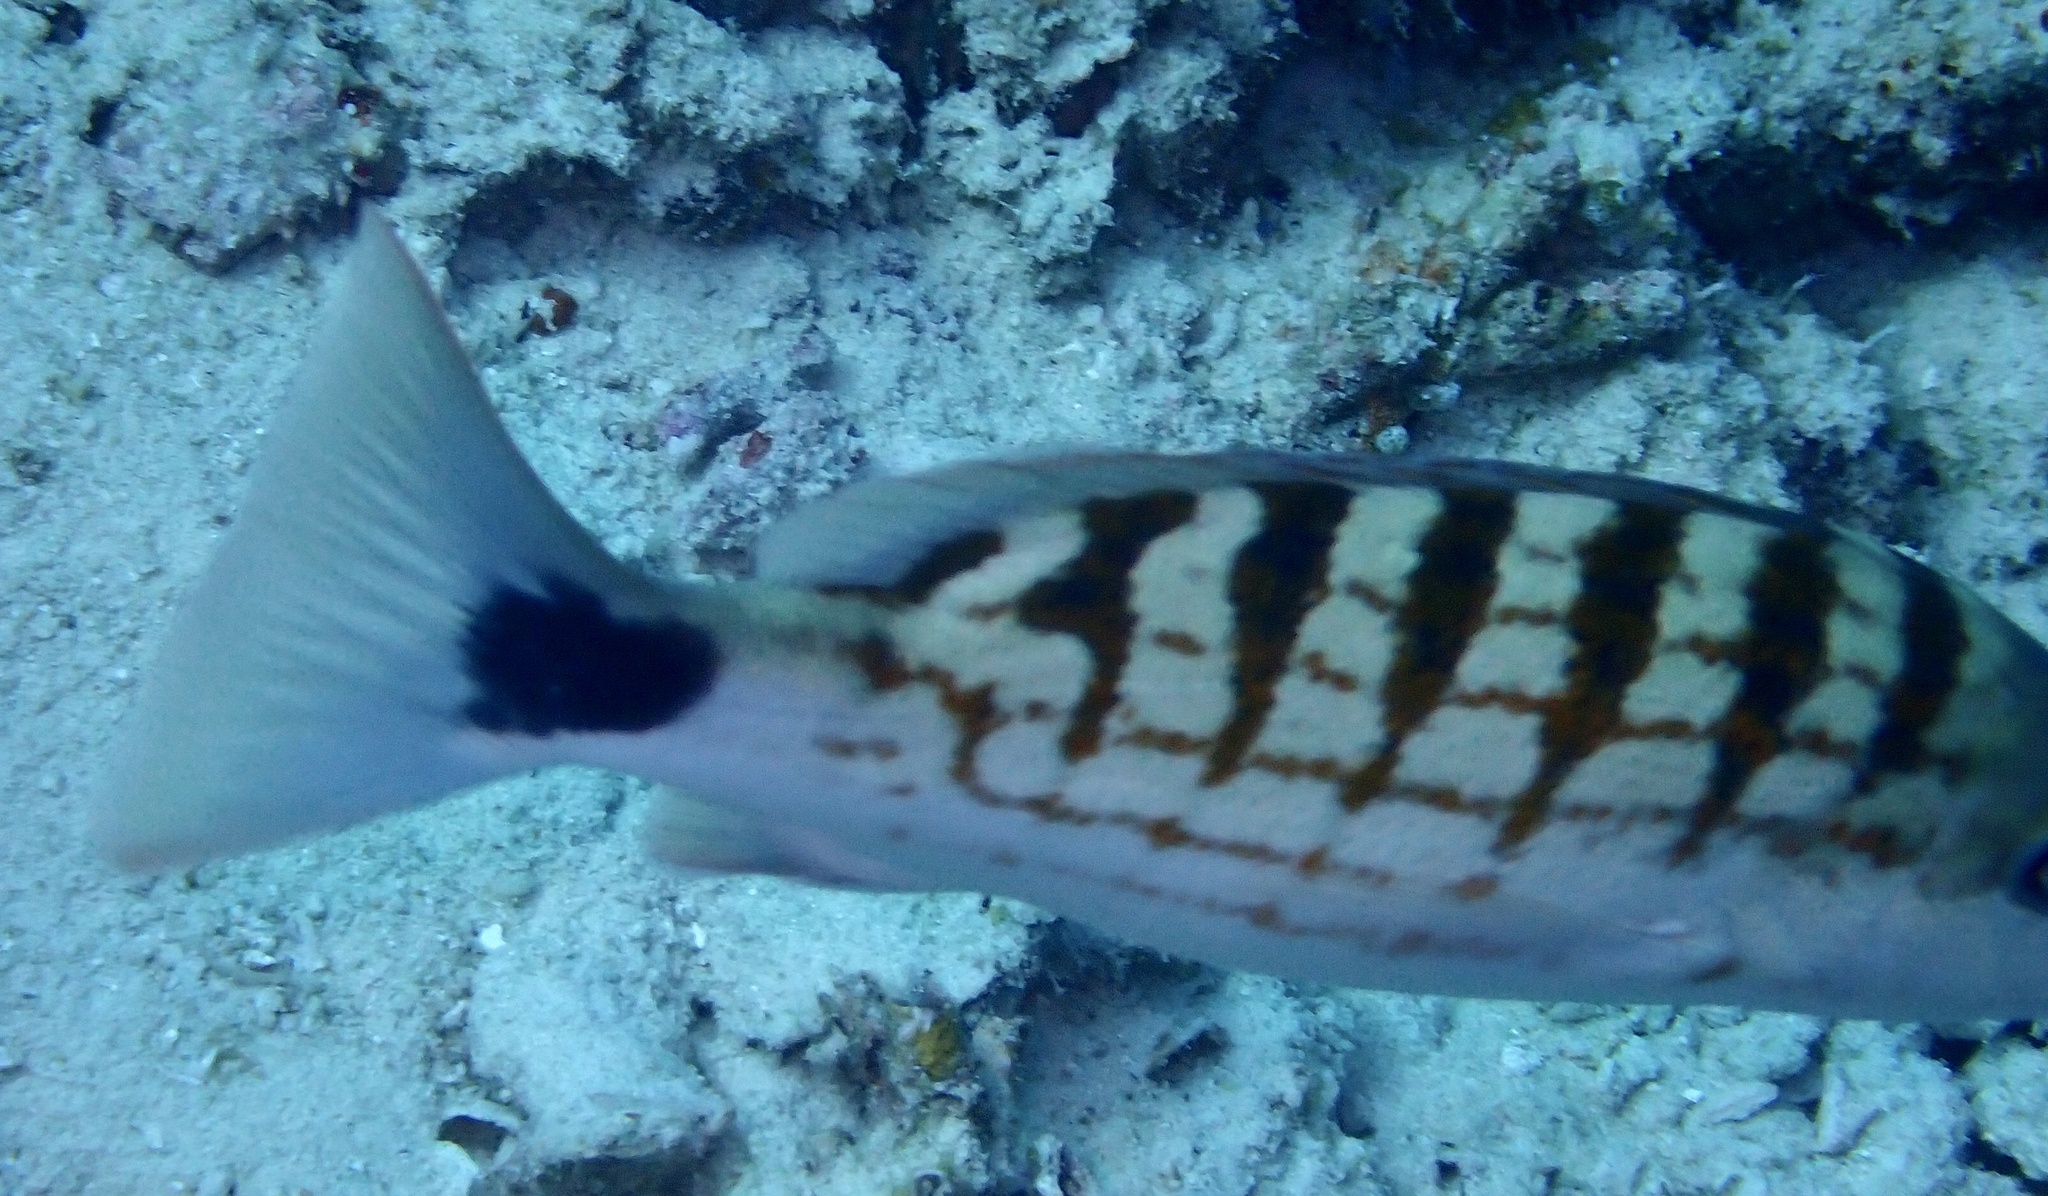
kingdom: Animalia
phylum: Chordata
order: Perciformes
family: Lutjanidae
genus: Lutjanus
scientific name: Lutjanus decussatus
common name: Checkered snapper
